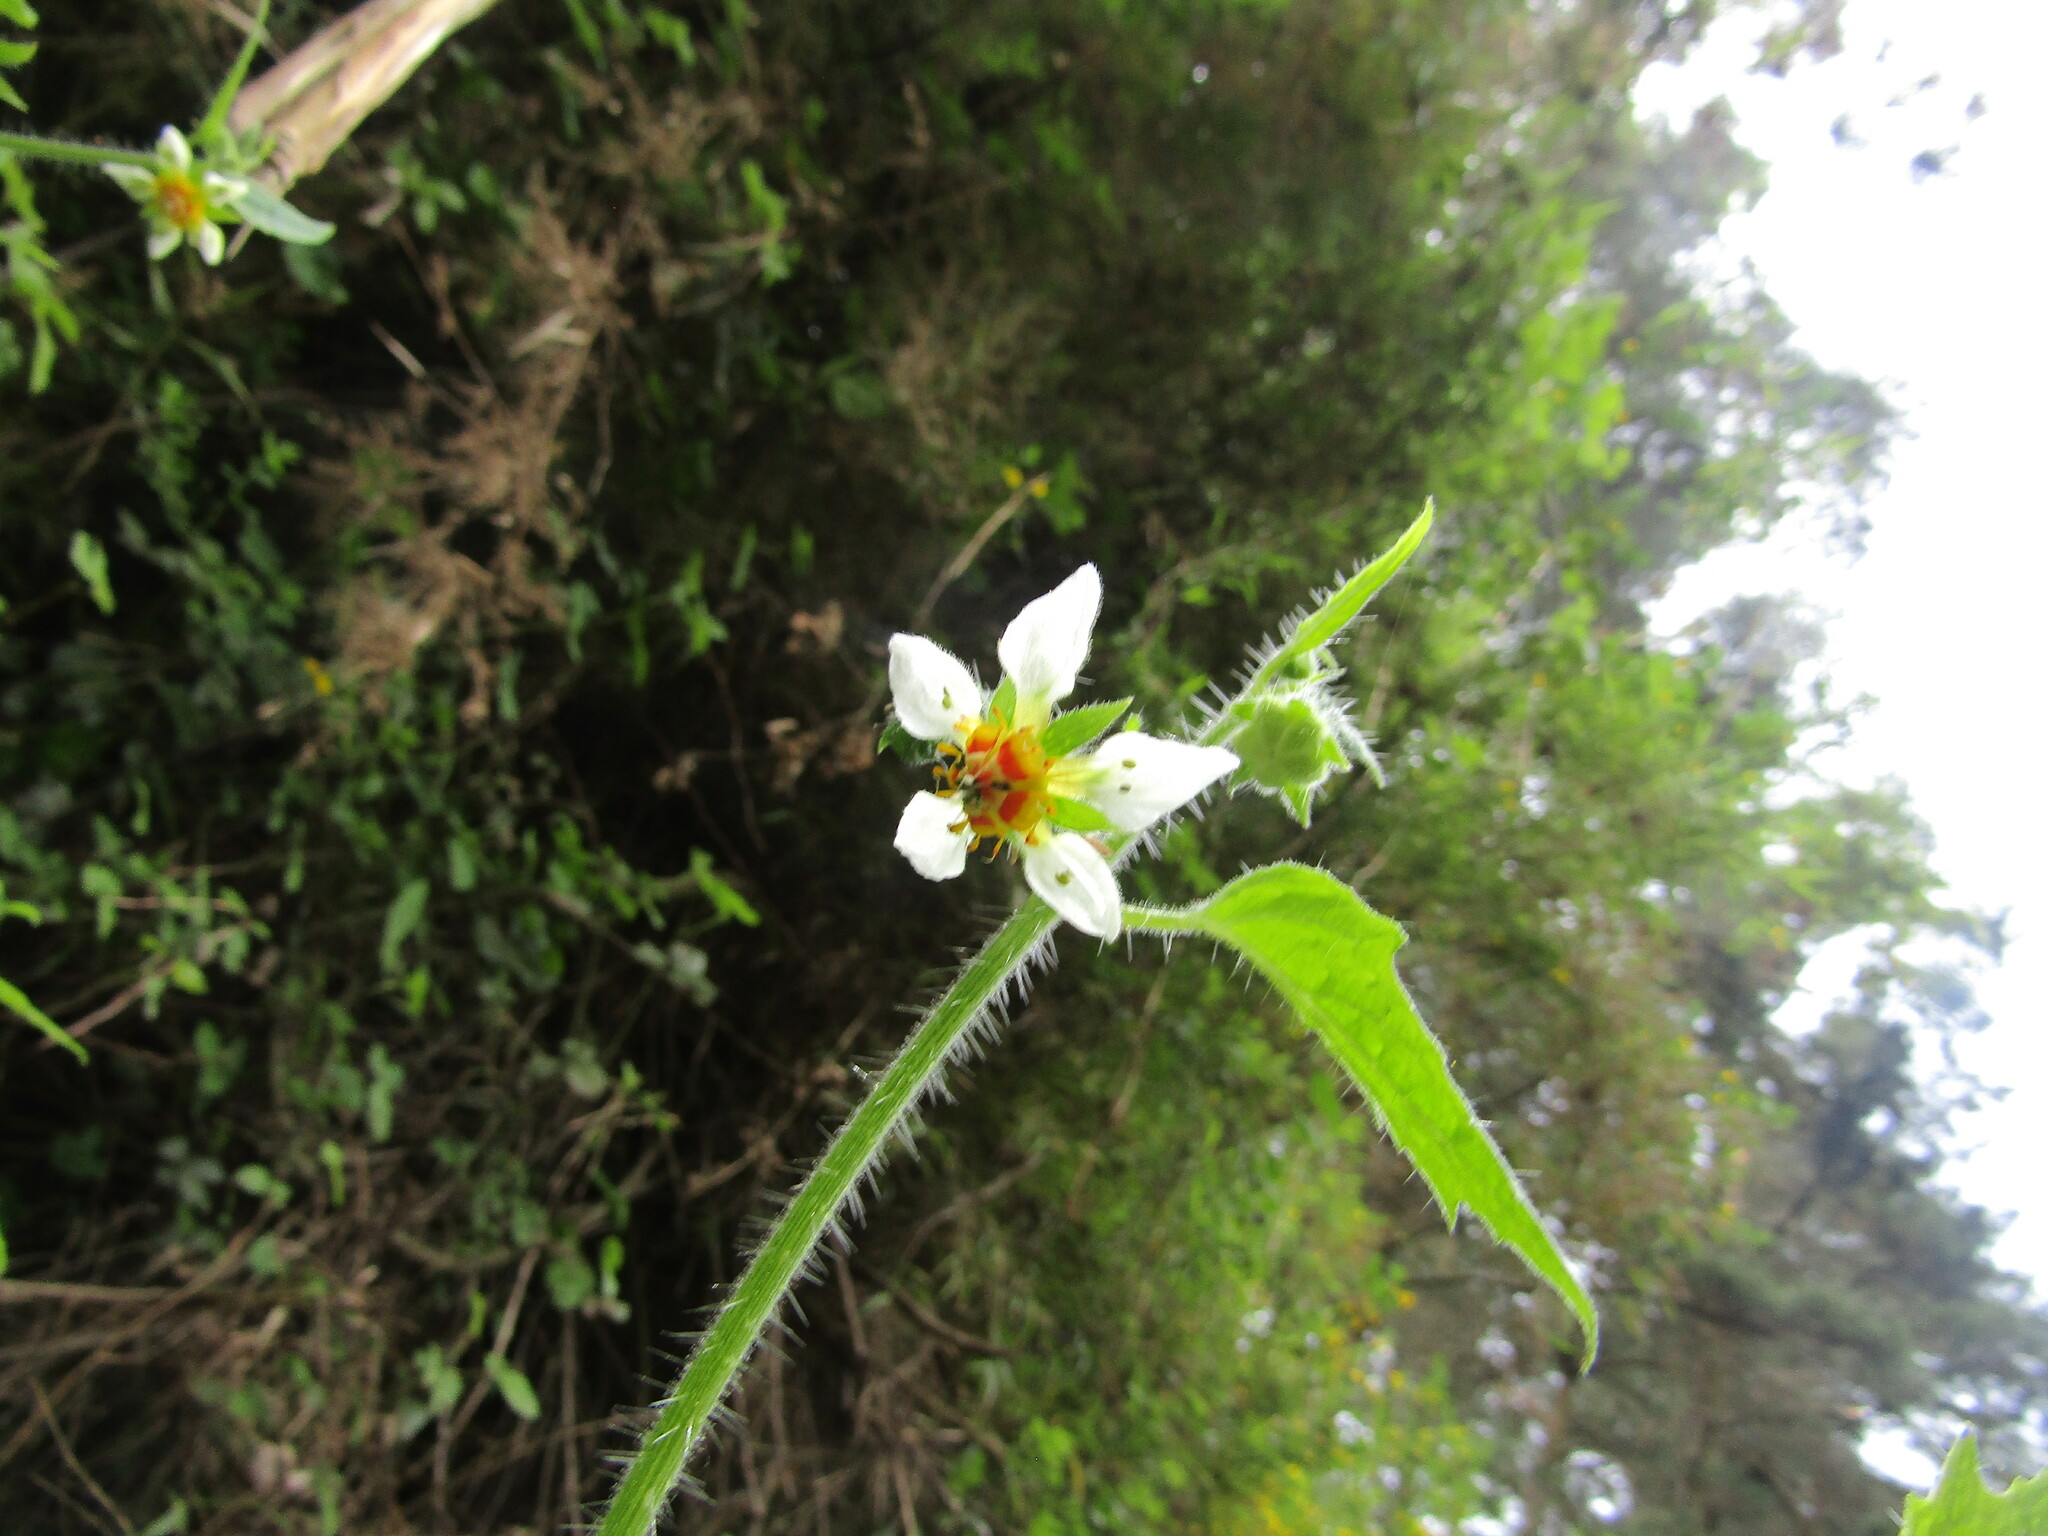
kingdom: Plantae
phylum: Tracheophyta
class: Magnoliopsida
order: Cornales
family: Loasaceae
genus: Loasa
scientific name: Loasa triloba
